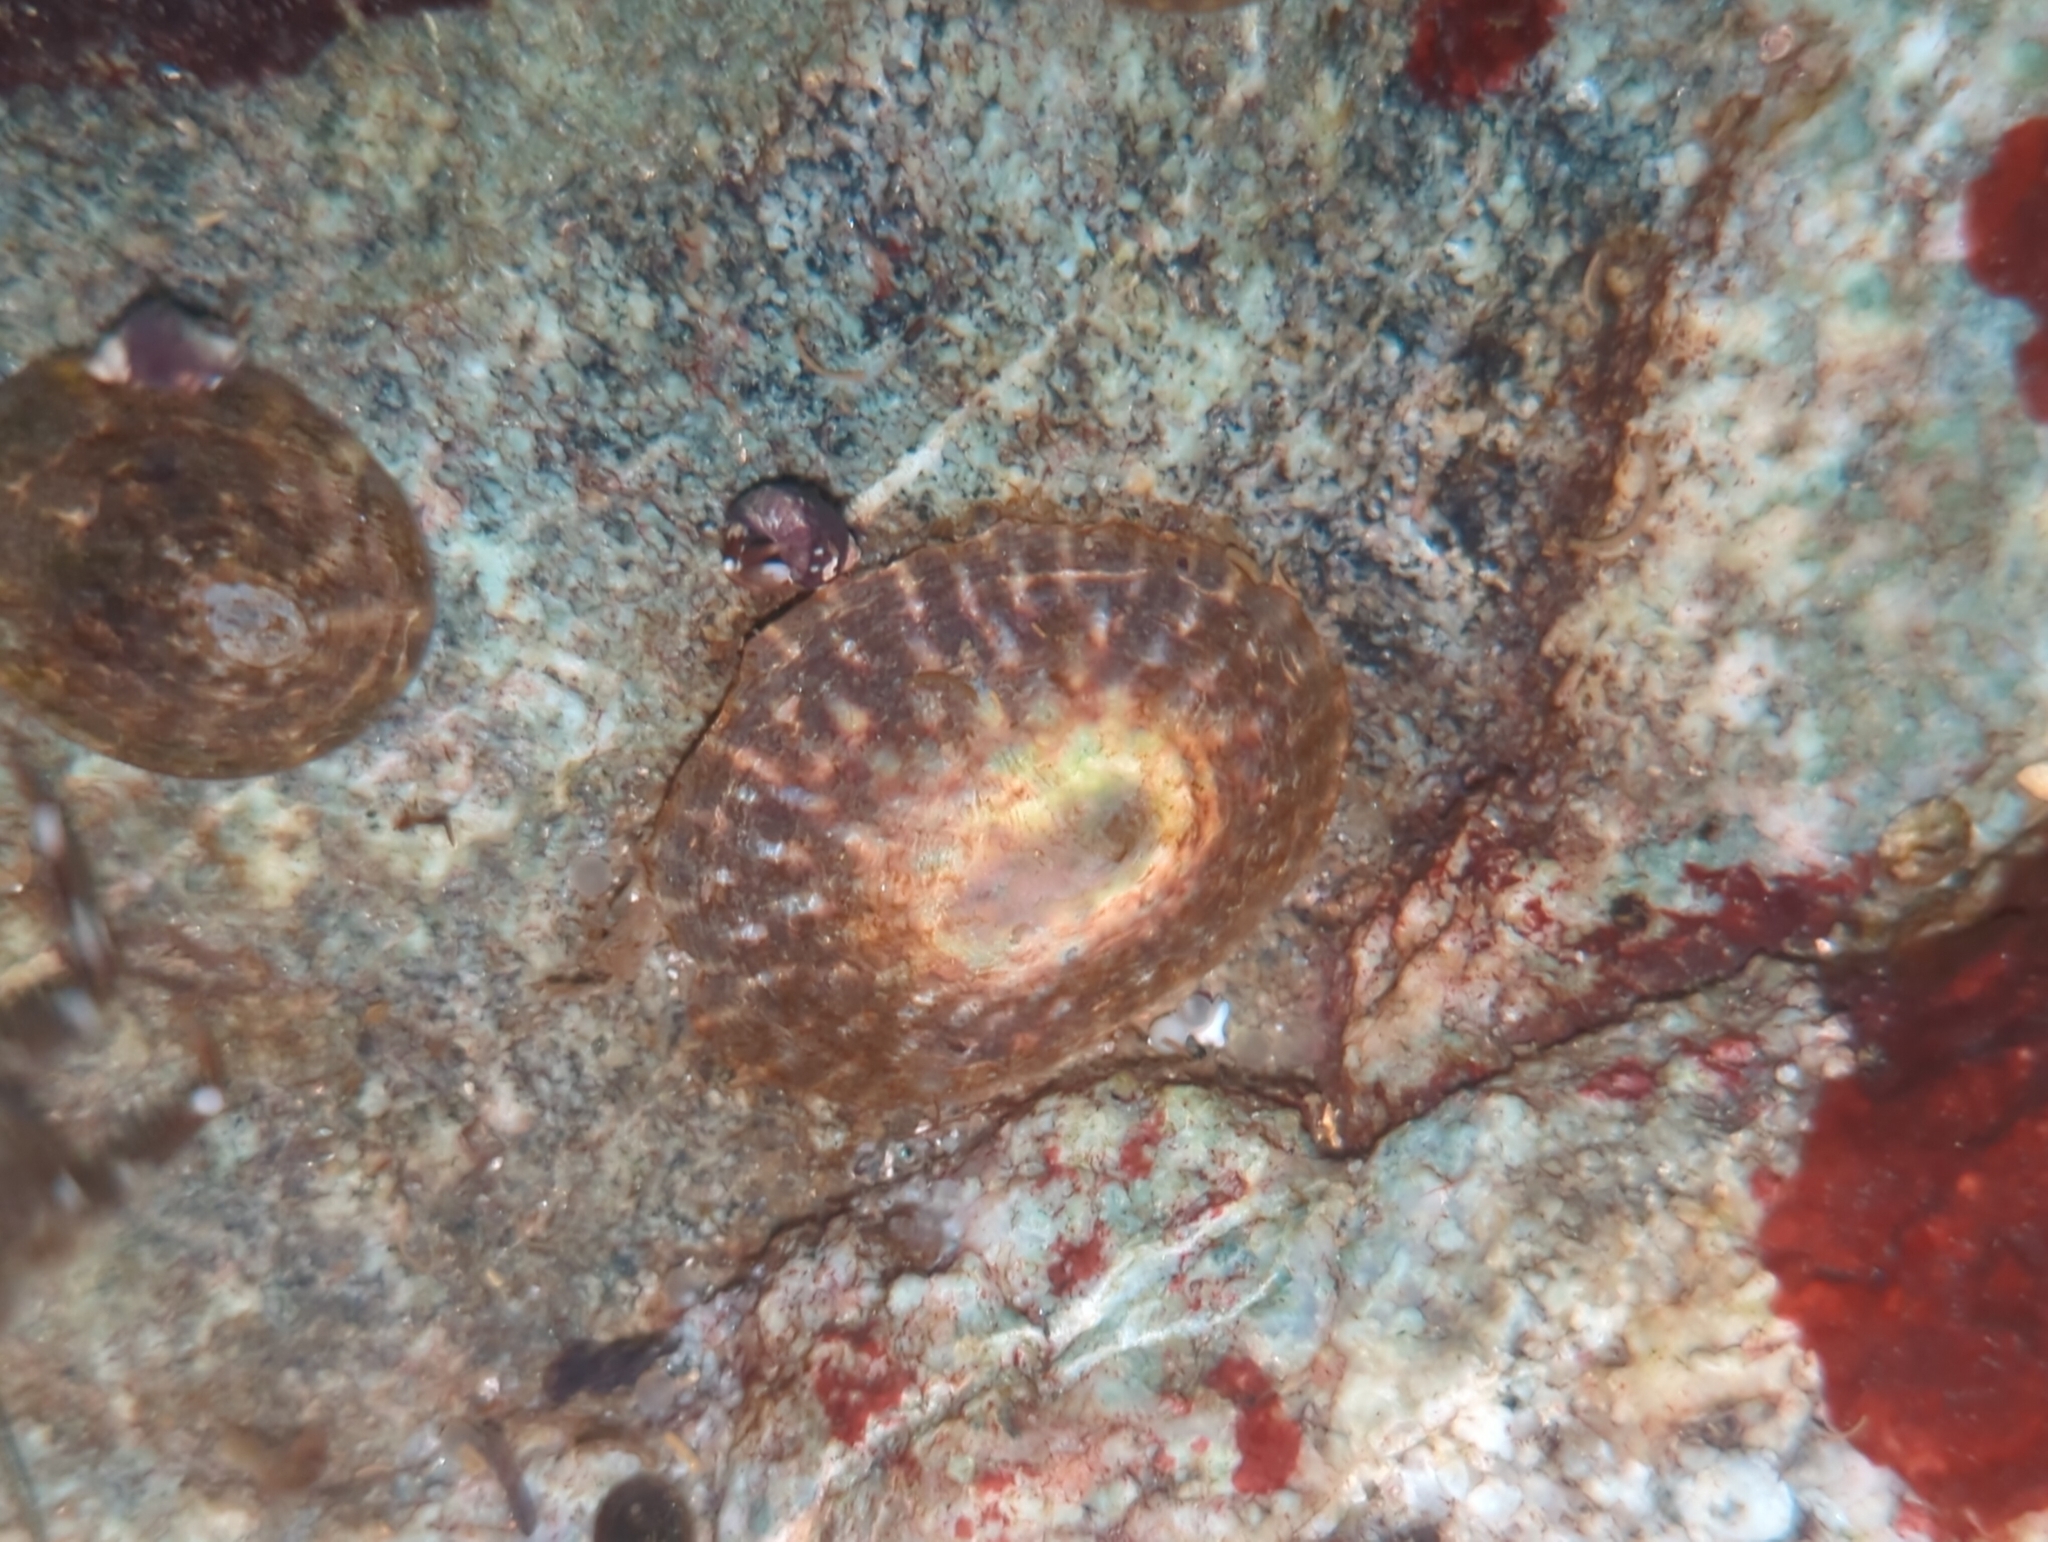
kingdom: Animalia
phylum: Mollusca
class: Gastropoda
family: Lottiidae
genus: Lottia
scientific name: Lottia scutum
